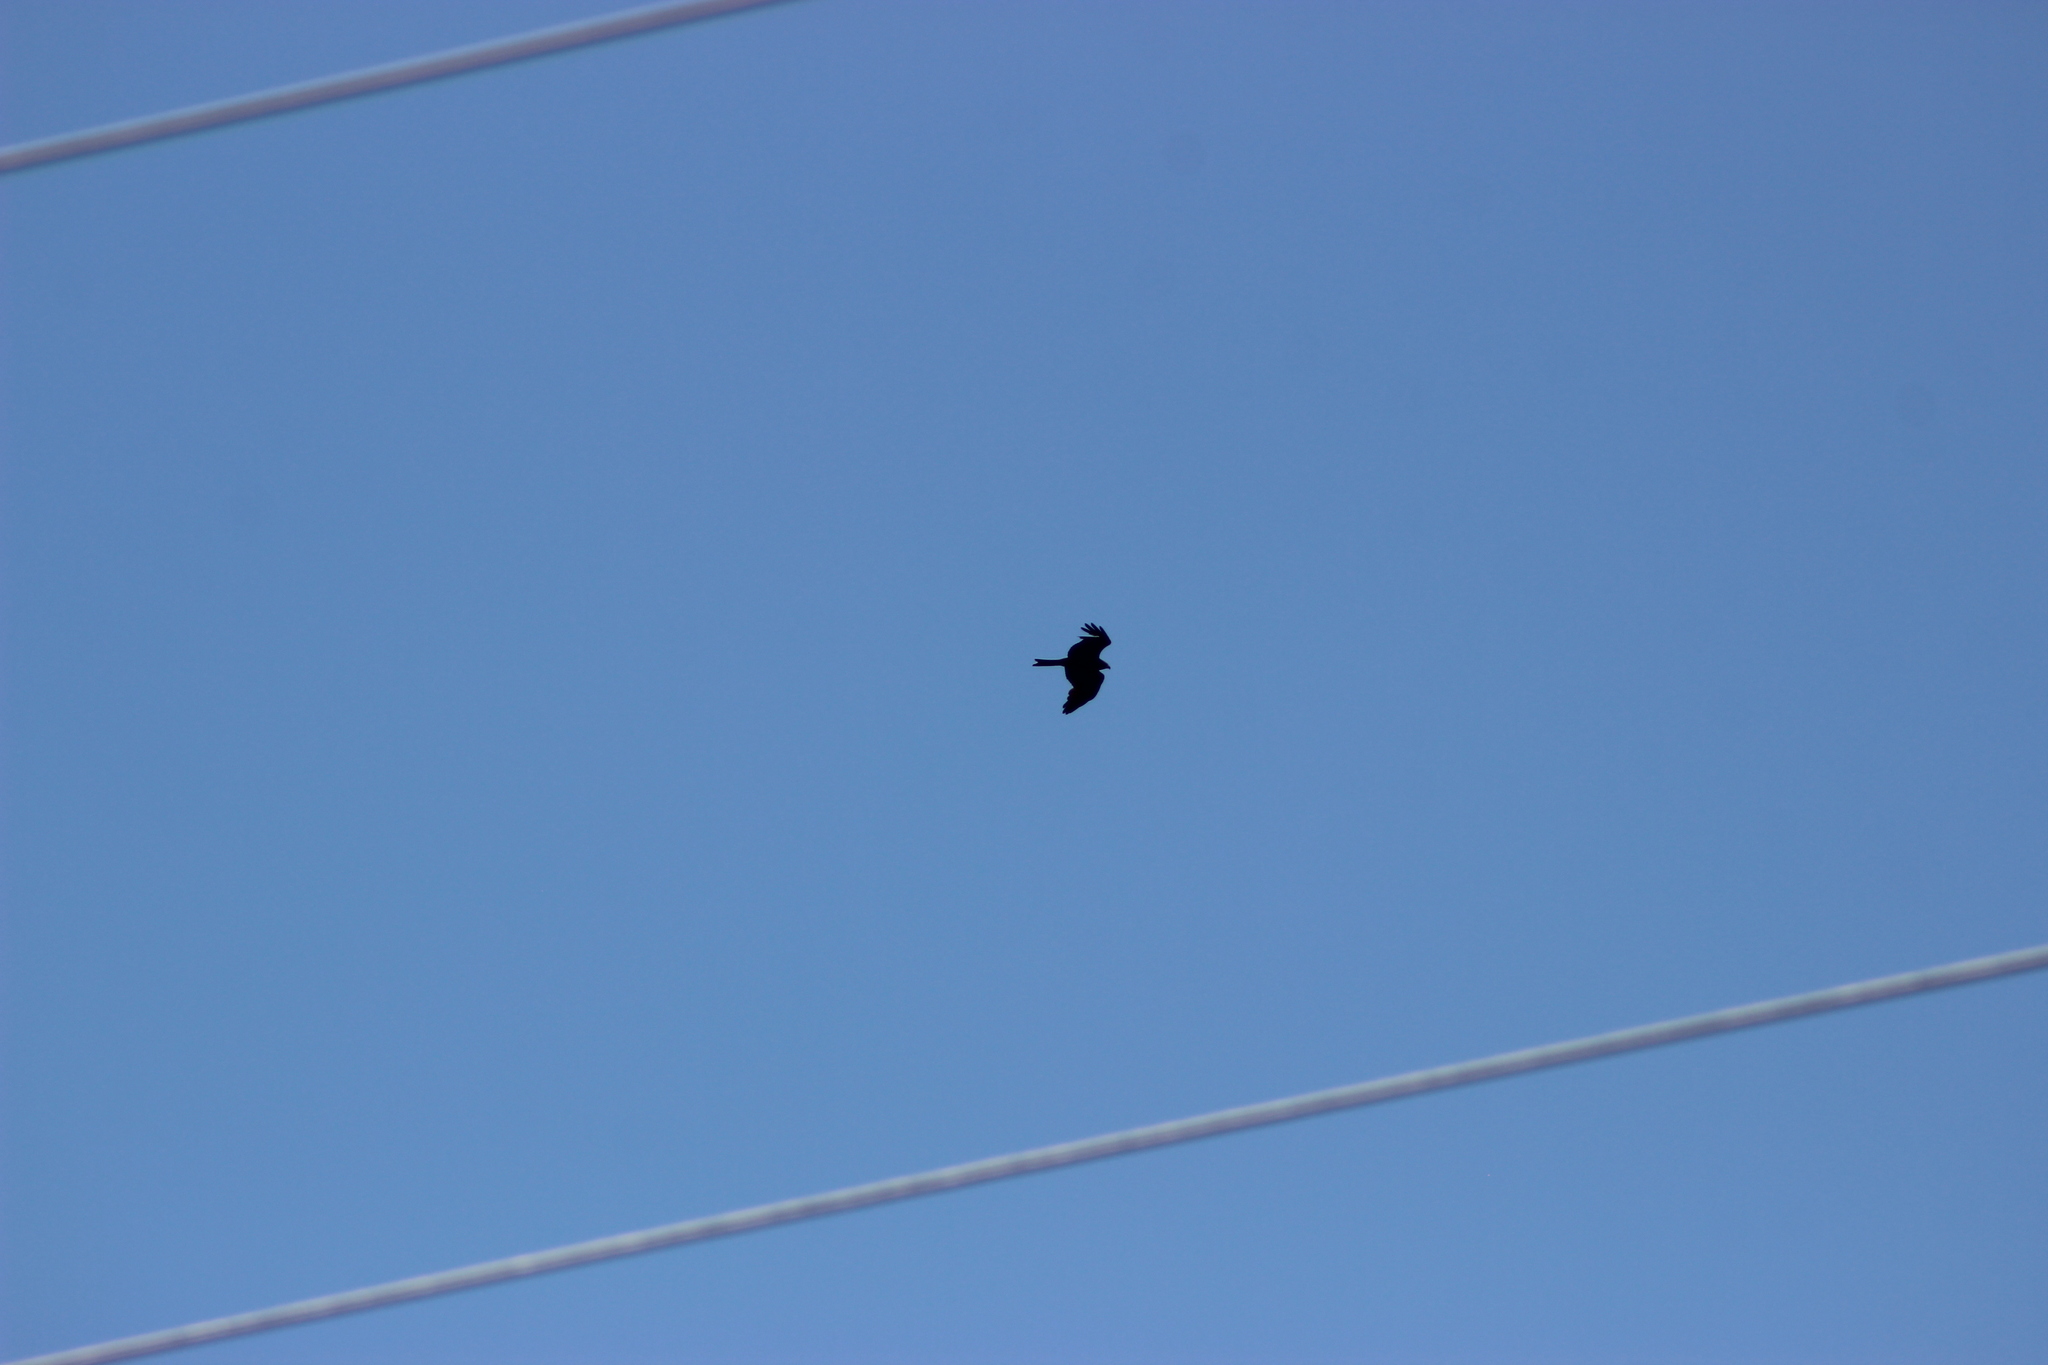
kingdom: Animalia
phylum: Chordata
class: Aves
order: Accipitriformes
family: Accipitridae
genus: Milvus
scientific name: Milvus migrans
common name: Black kite
